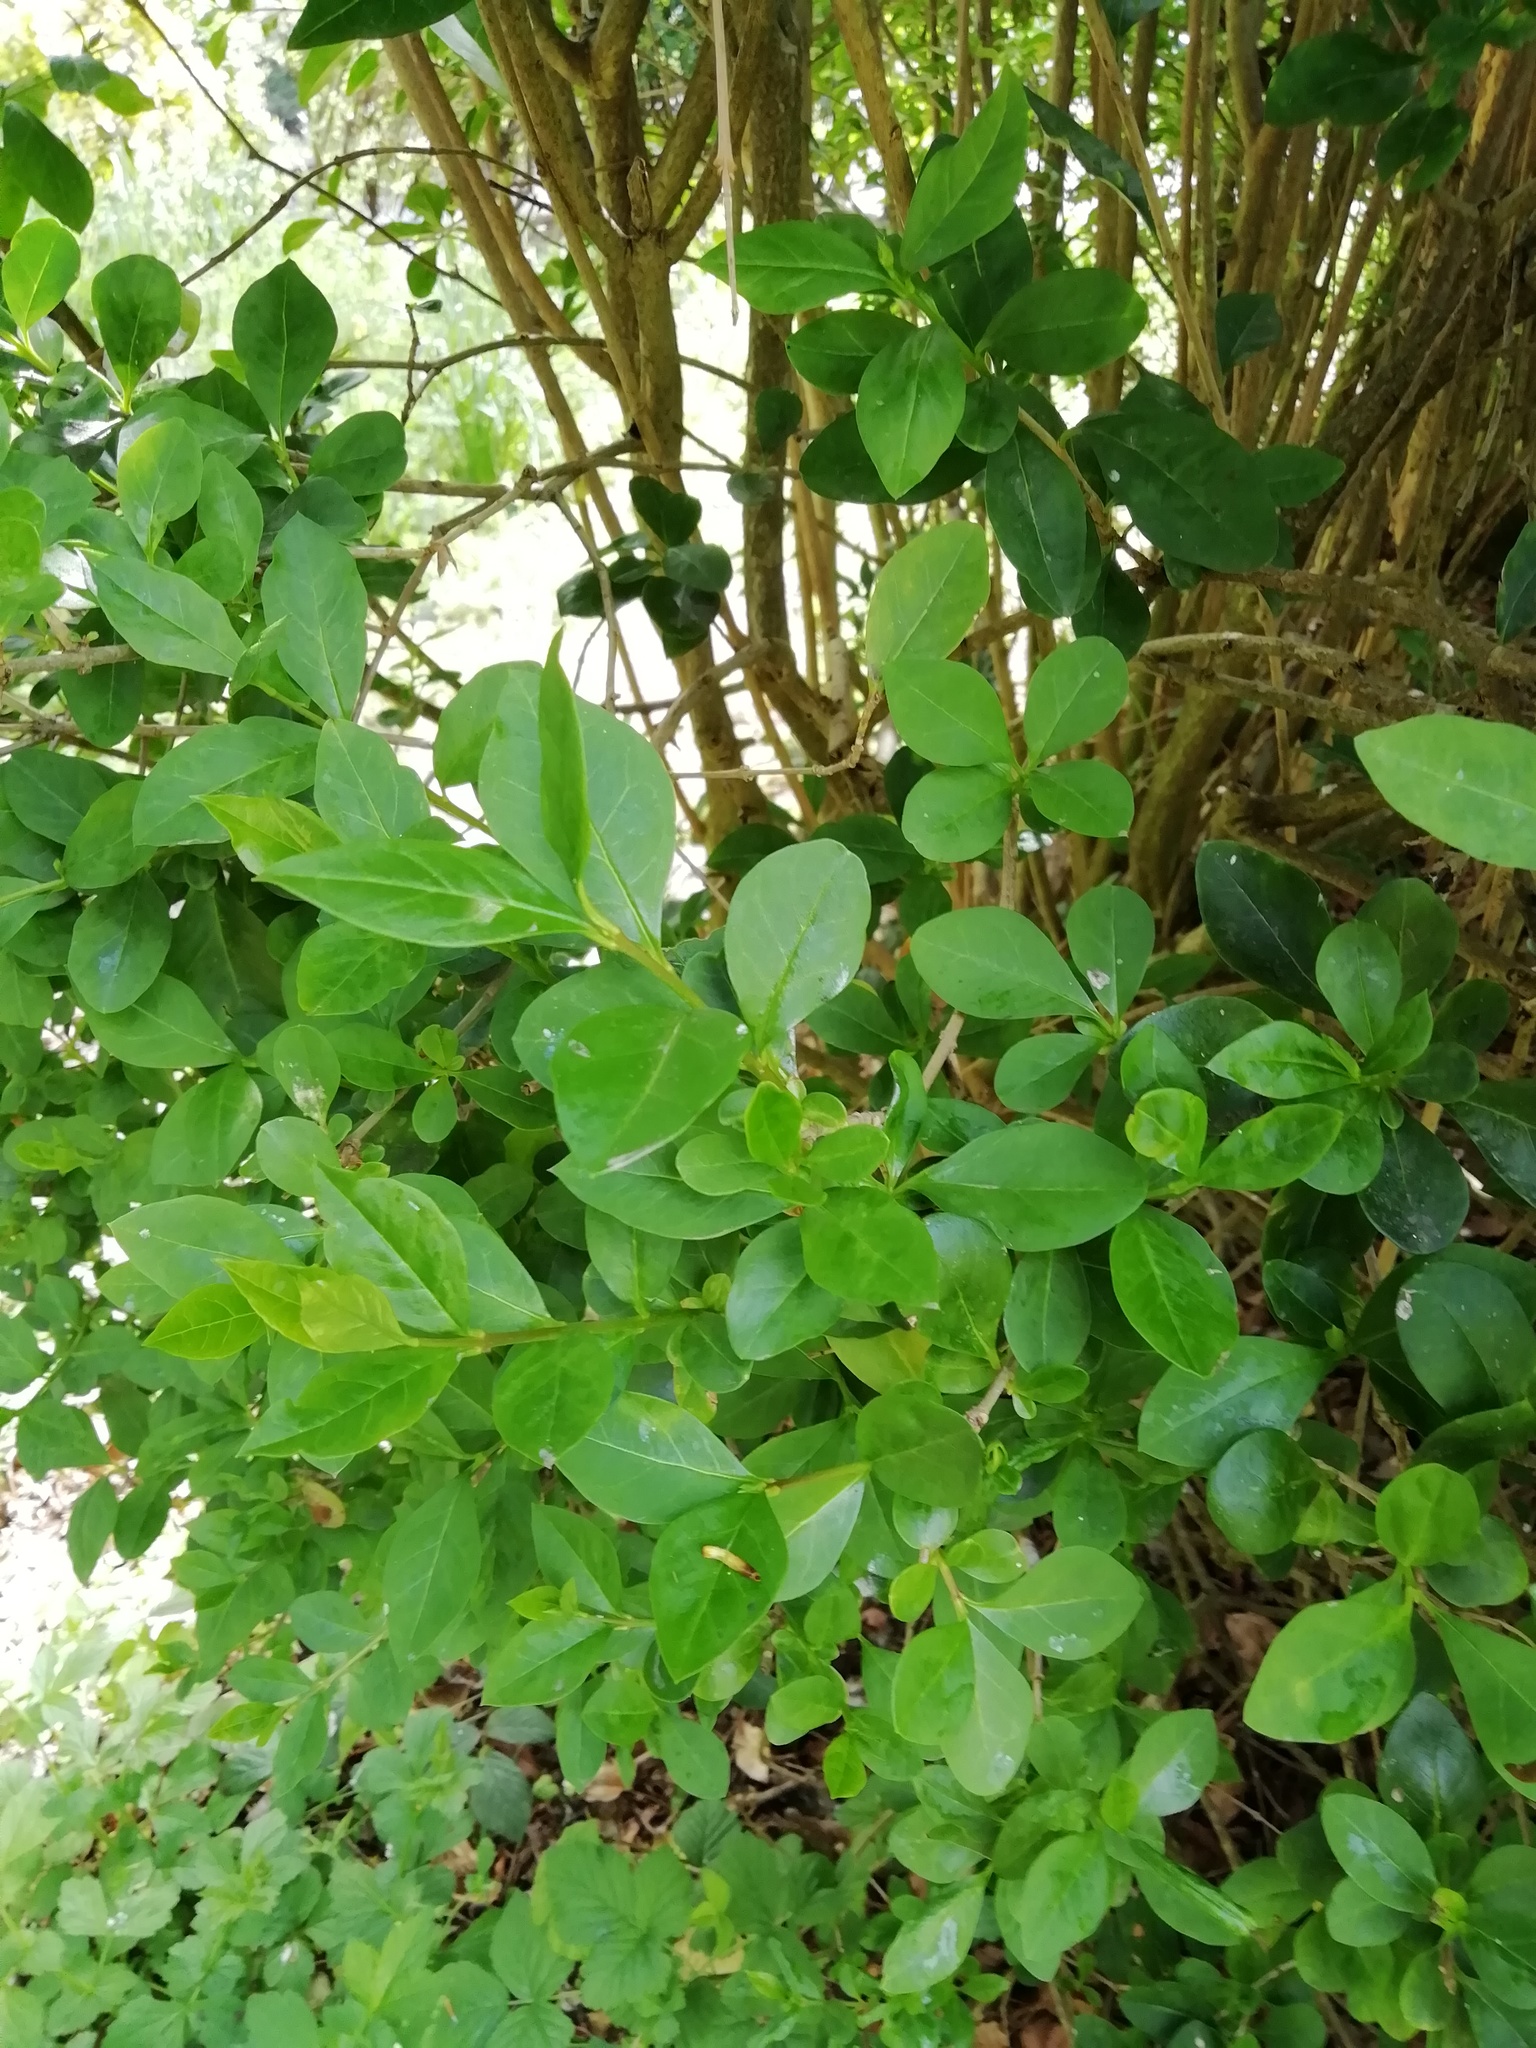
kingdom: Plantae
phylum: Tracheophyta
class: Magnoliopsida
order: Lamiales
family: Oleaceae
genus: Ligustrum
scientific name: Ligustrum ovalifolium
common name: California privet
